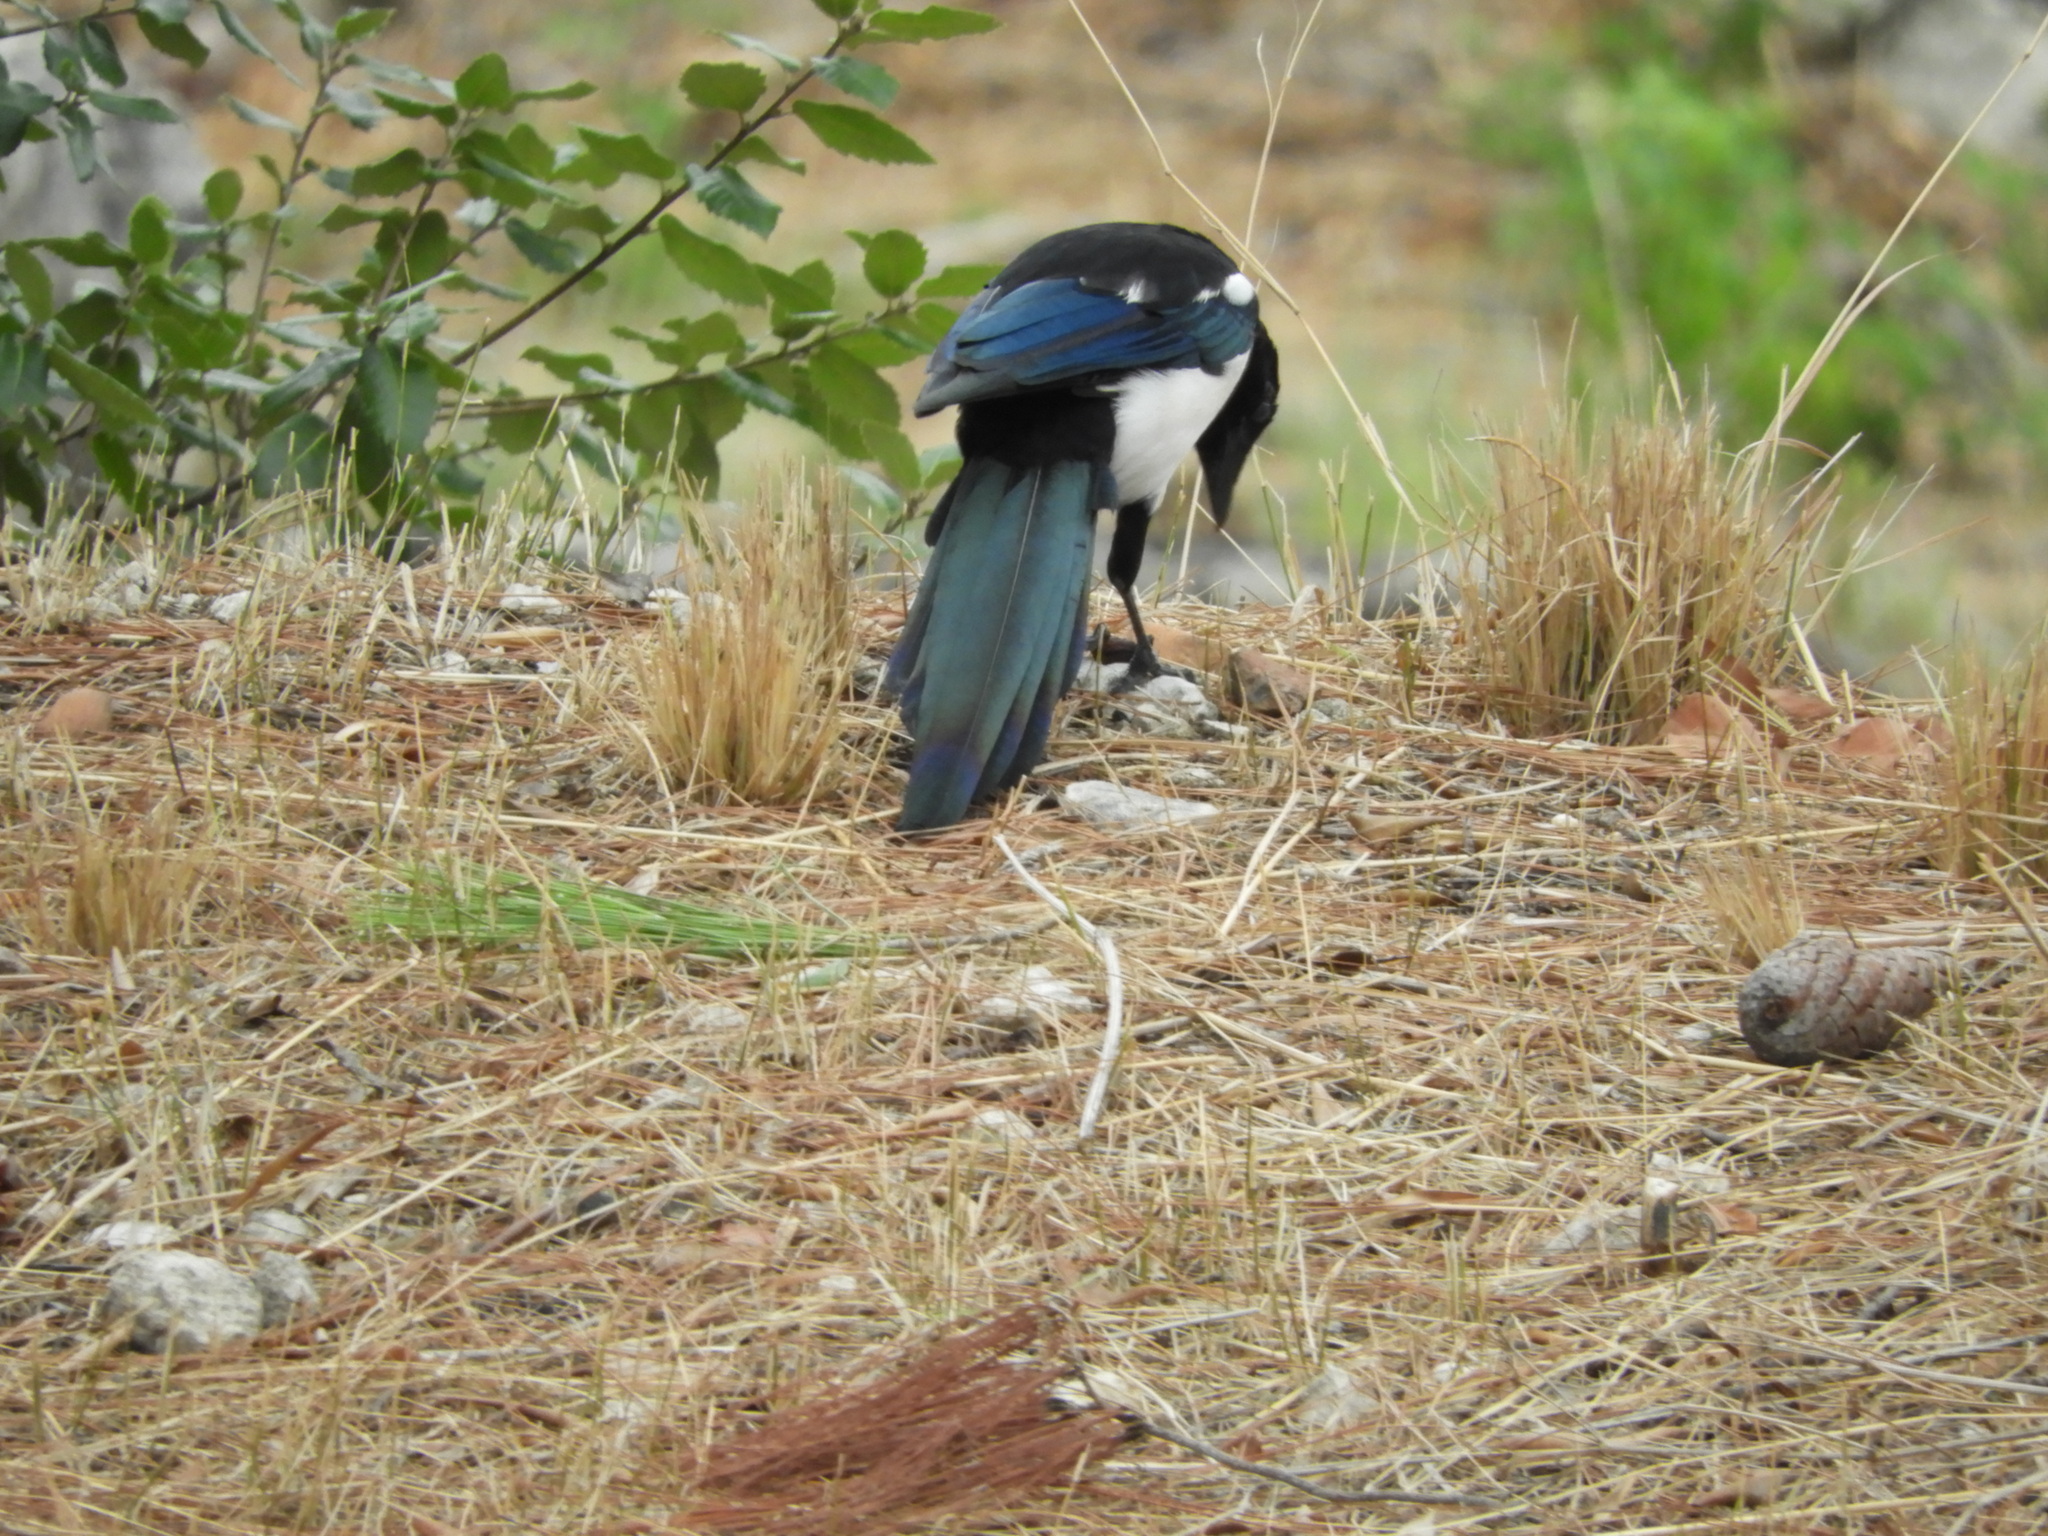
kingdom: Animalia
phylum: Chordata
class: Aves
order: Passeriformes
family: Corvidae
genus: Pica
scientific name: Pica pica
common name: Eurasian magpie
